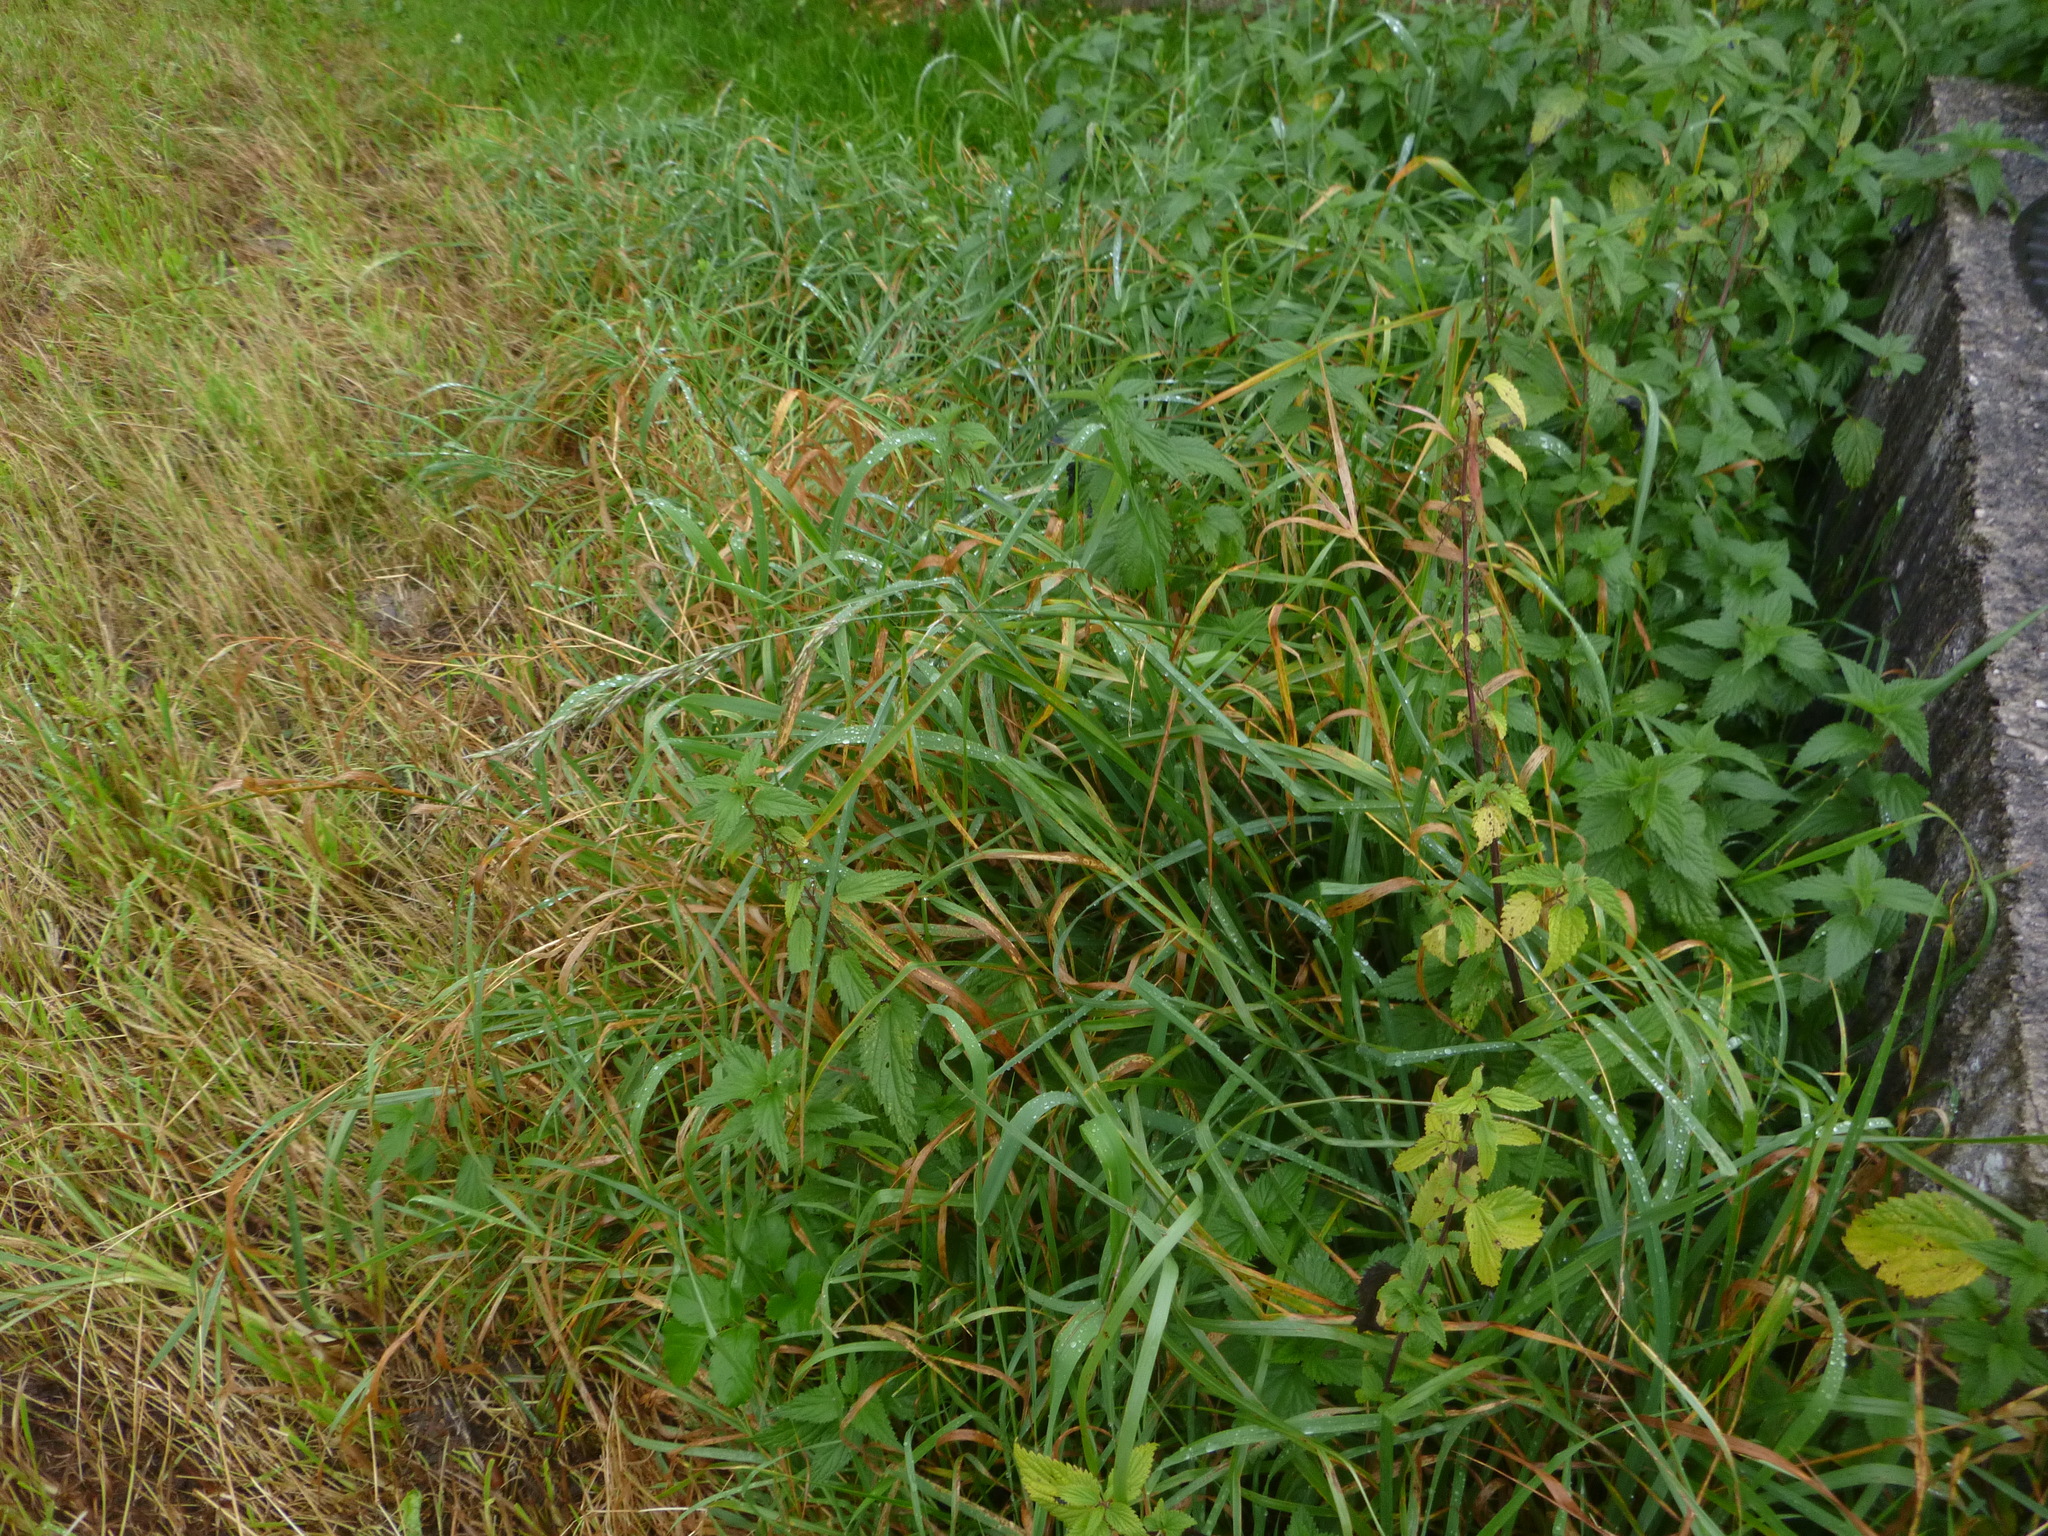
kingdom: Plantae
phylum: Tracheophyta
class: Liliopsida
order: Poales
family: Poaceae
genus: Arrhenatherum
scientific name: Arrhenatherum elatius
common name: Tall oatgrass
